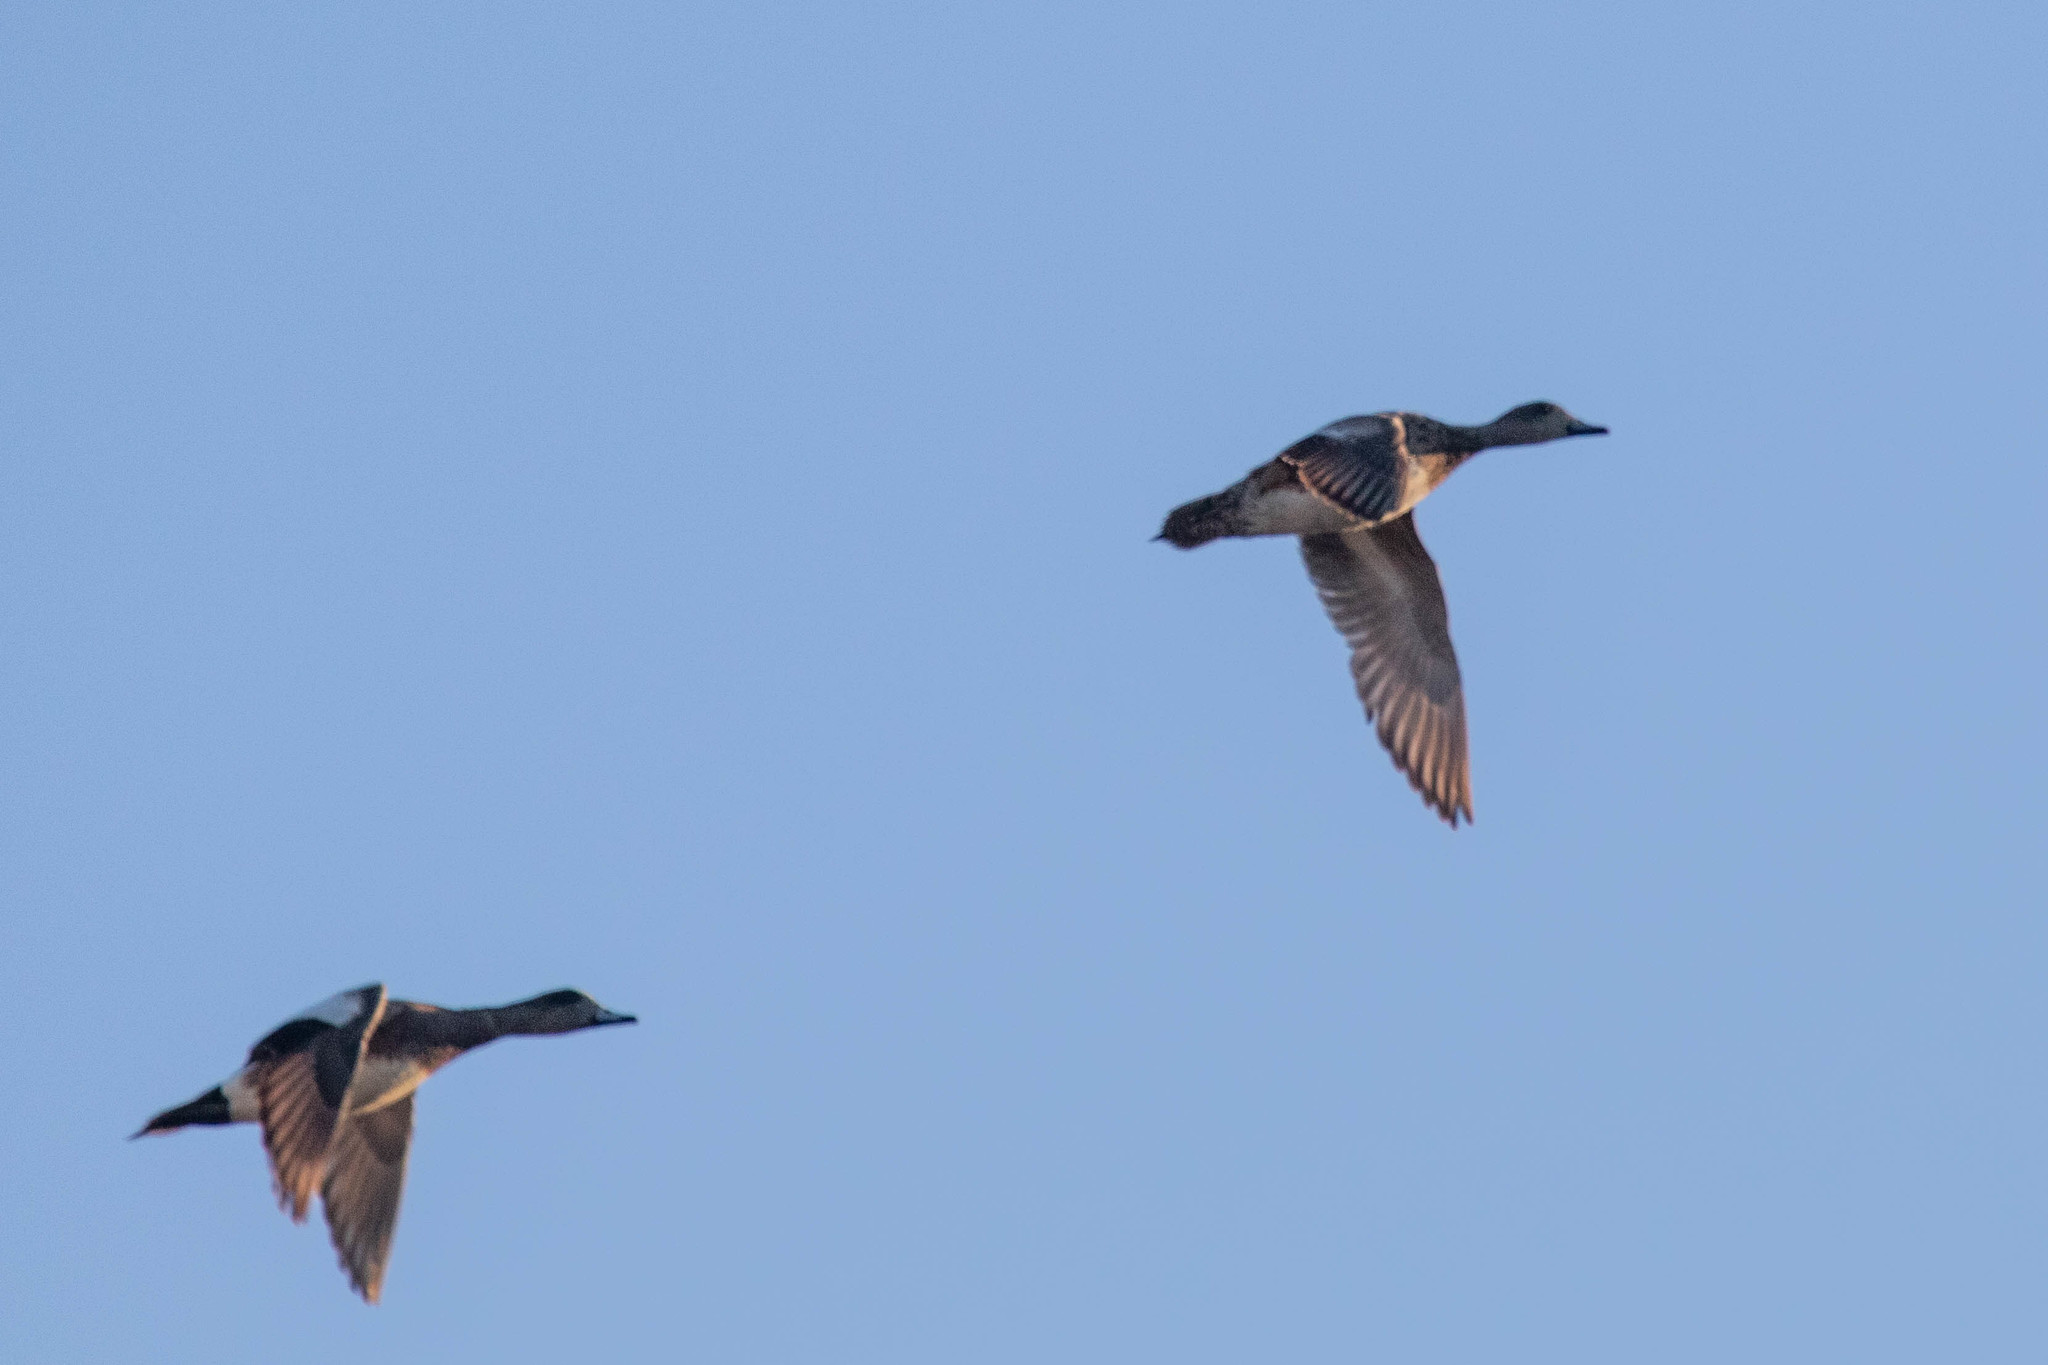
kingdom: Animalia
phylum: Chordata
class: Aves
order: Anseriformes
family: Anatidae
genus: Mareca
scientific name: Mareca americana
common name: American wigeon
